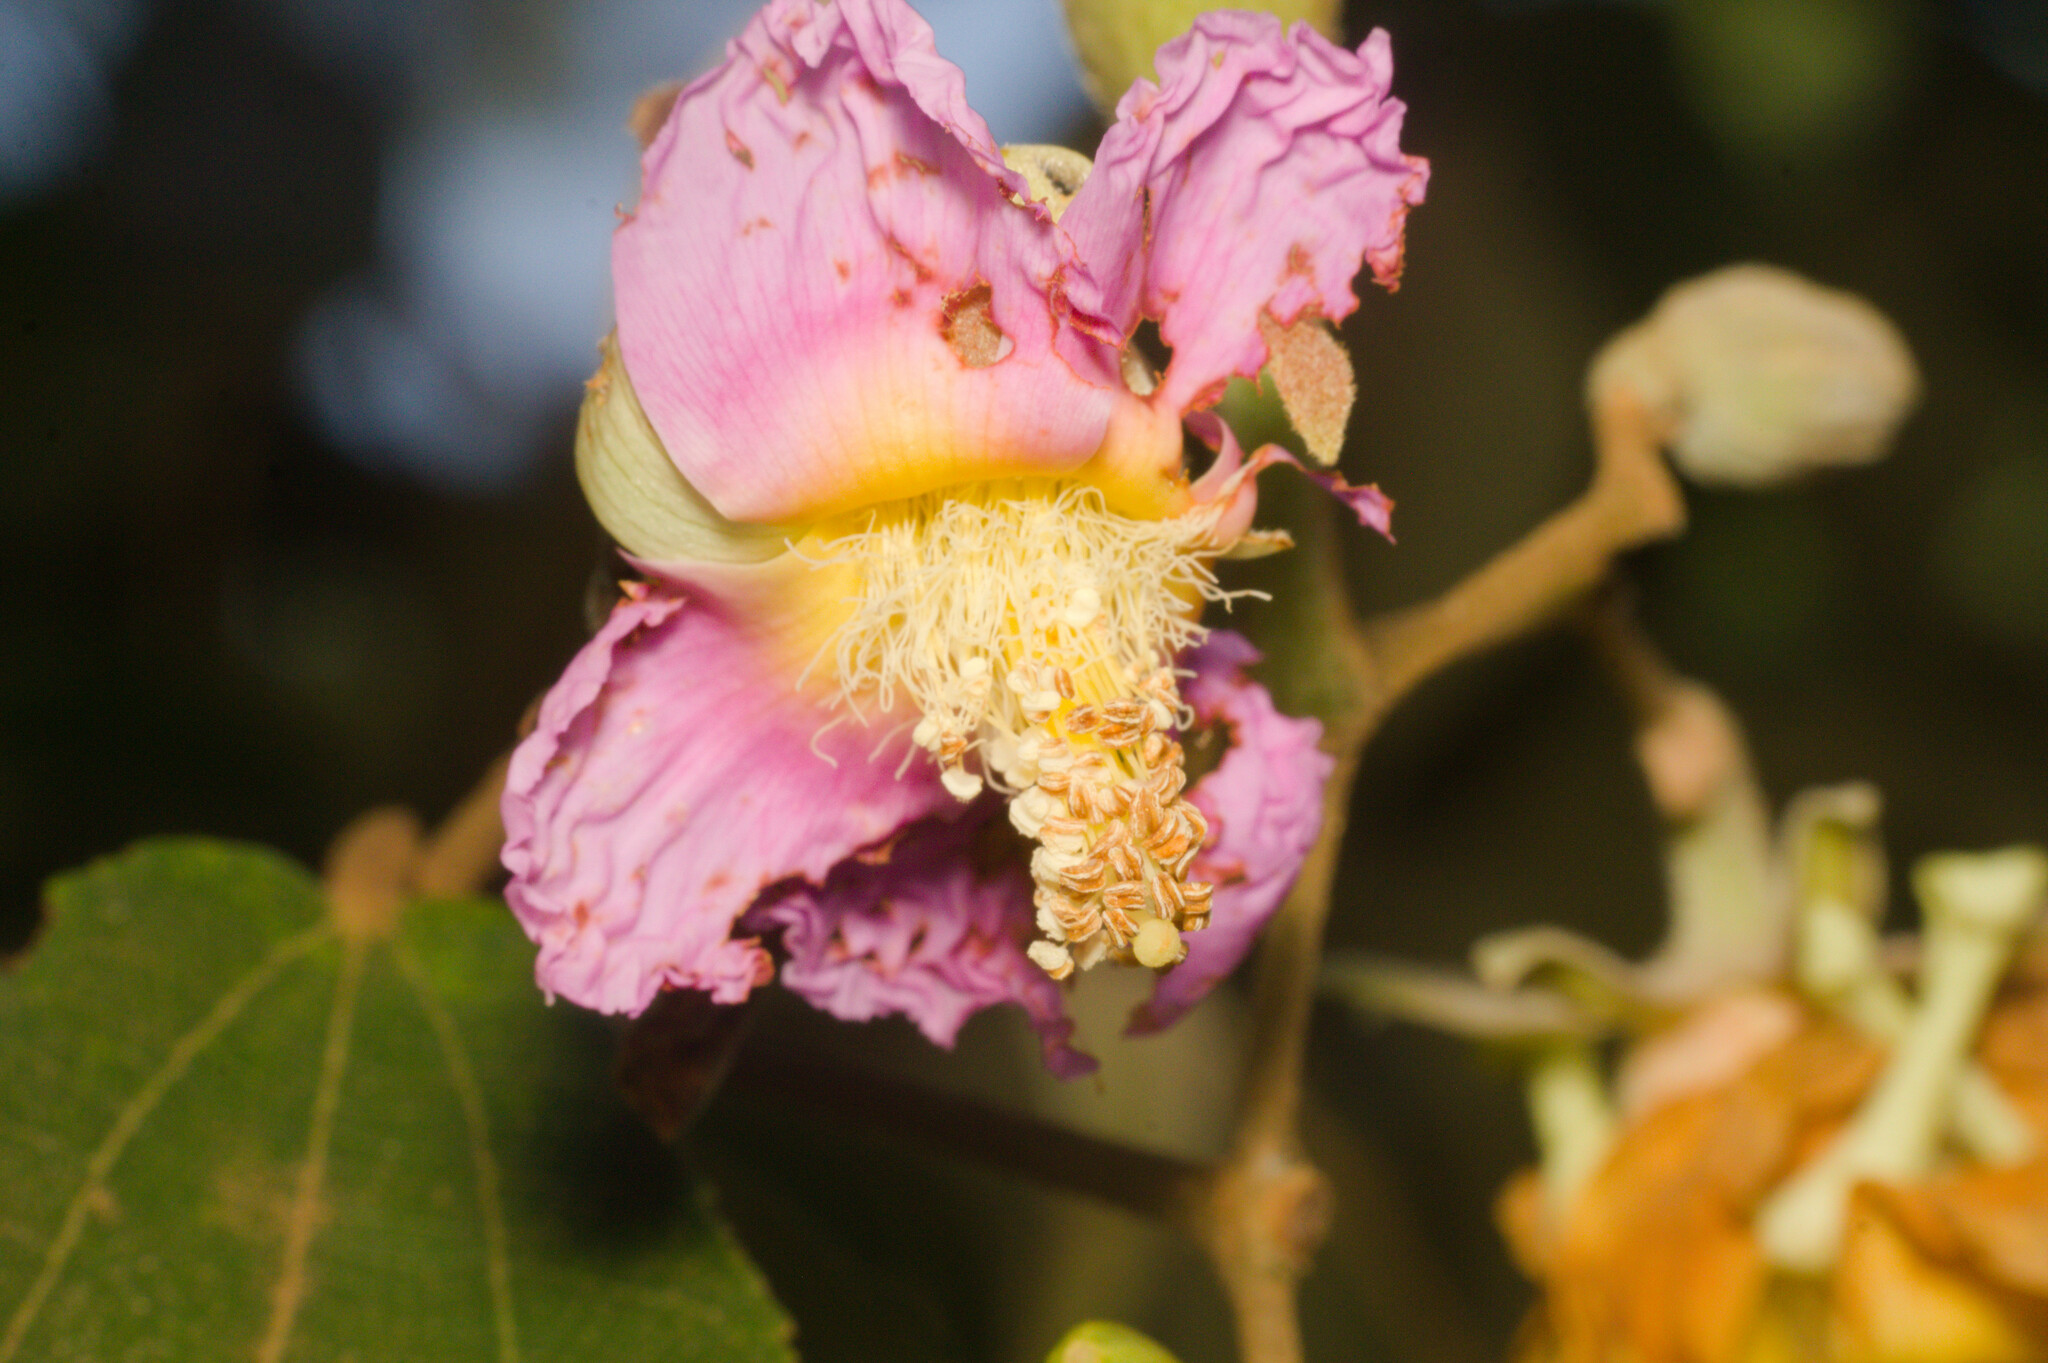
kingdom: Plantae
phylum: Tracheophyta
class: Magnoliopsida
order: Malvales
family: Malvaceae
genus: Luehea
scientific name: Luehea divaricata
